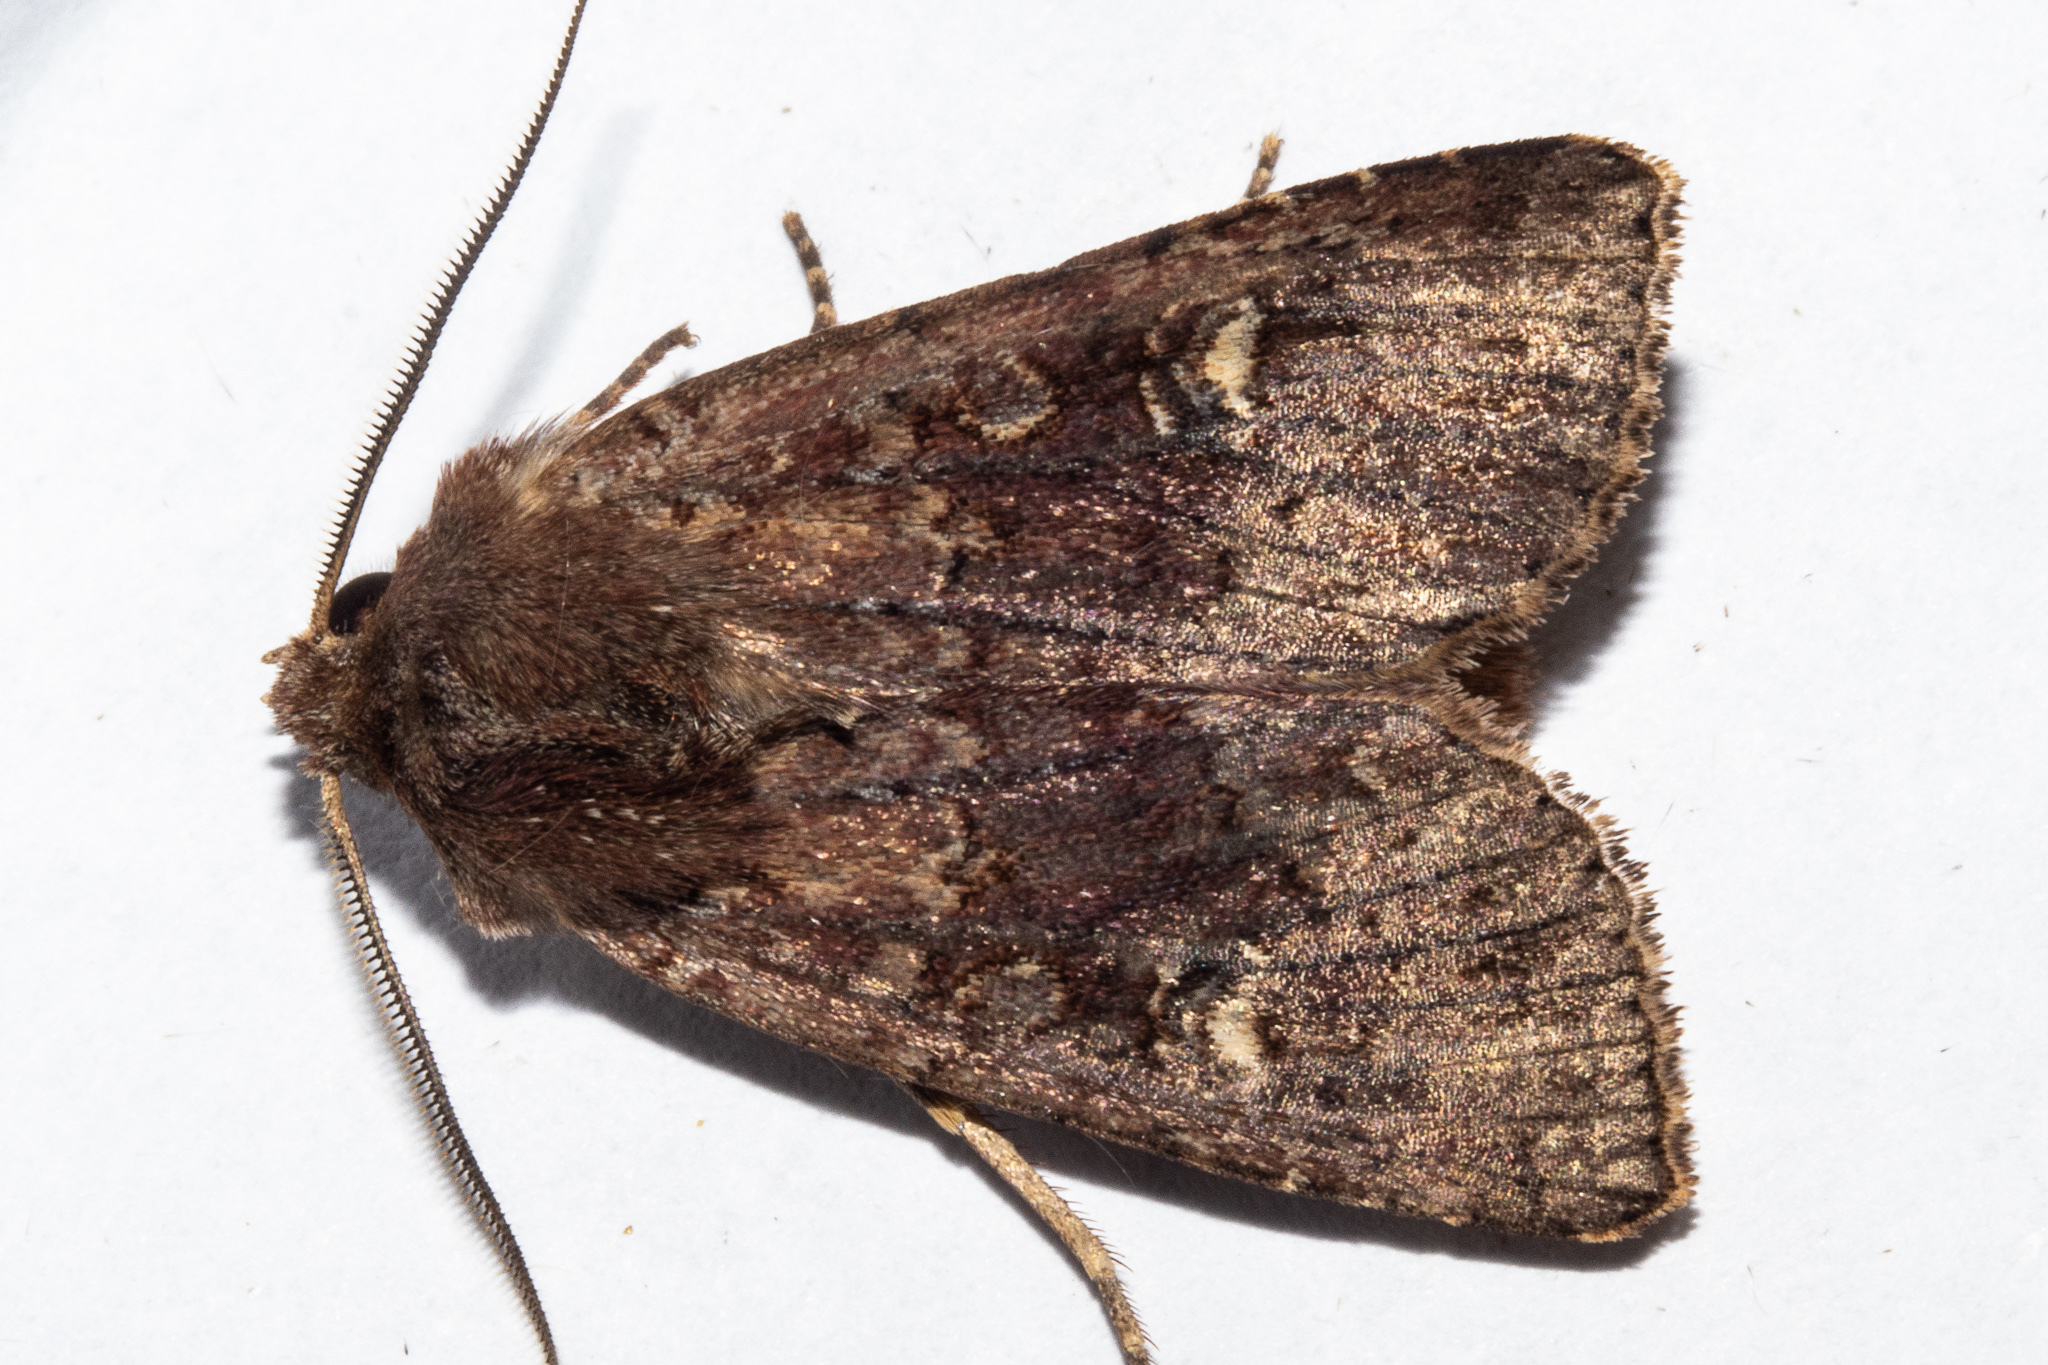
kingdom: Animalia
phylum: Arthropoda
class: Insecta
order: Lepidoptera
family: Noctuidae
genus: Ichneutica
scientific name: Ichneutica agorastis
